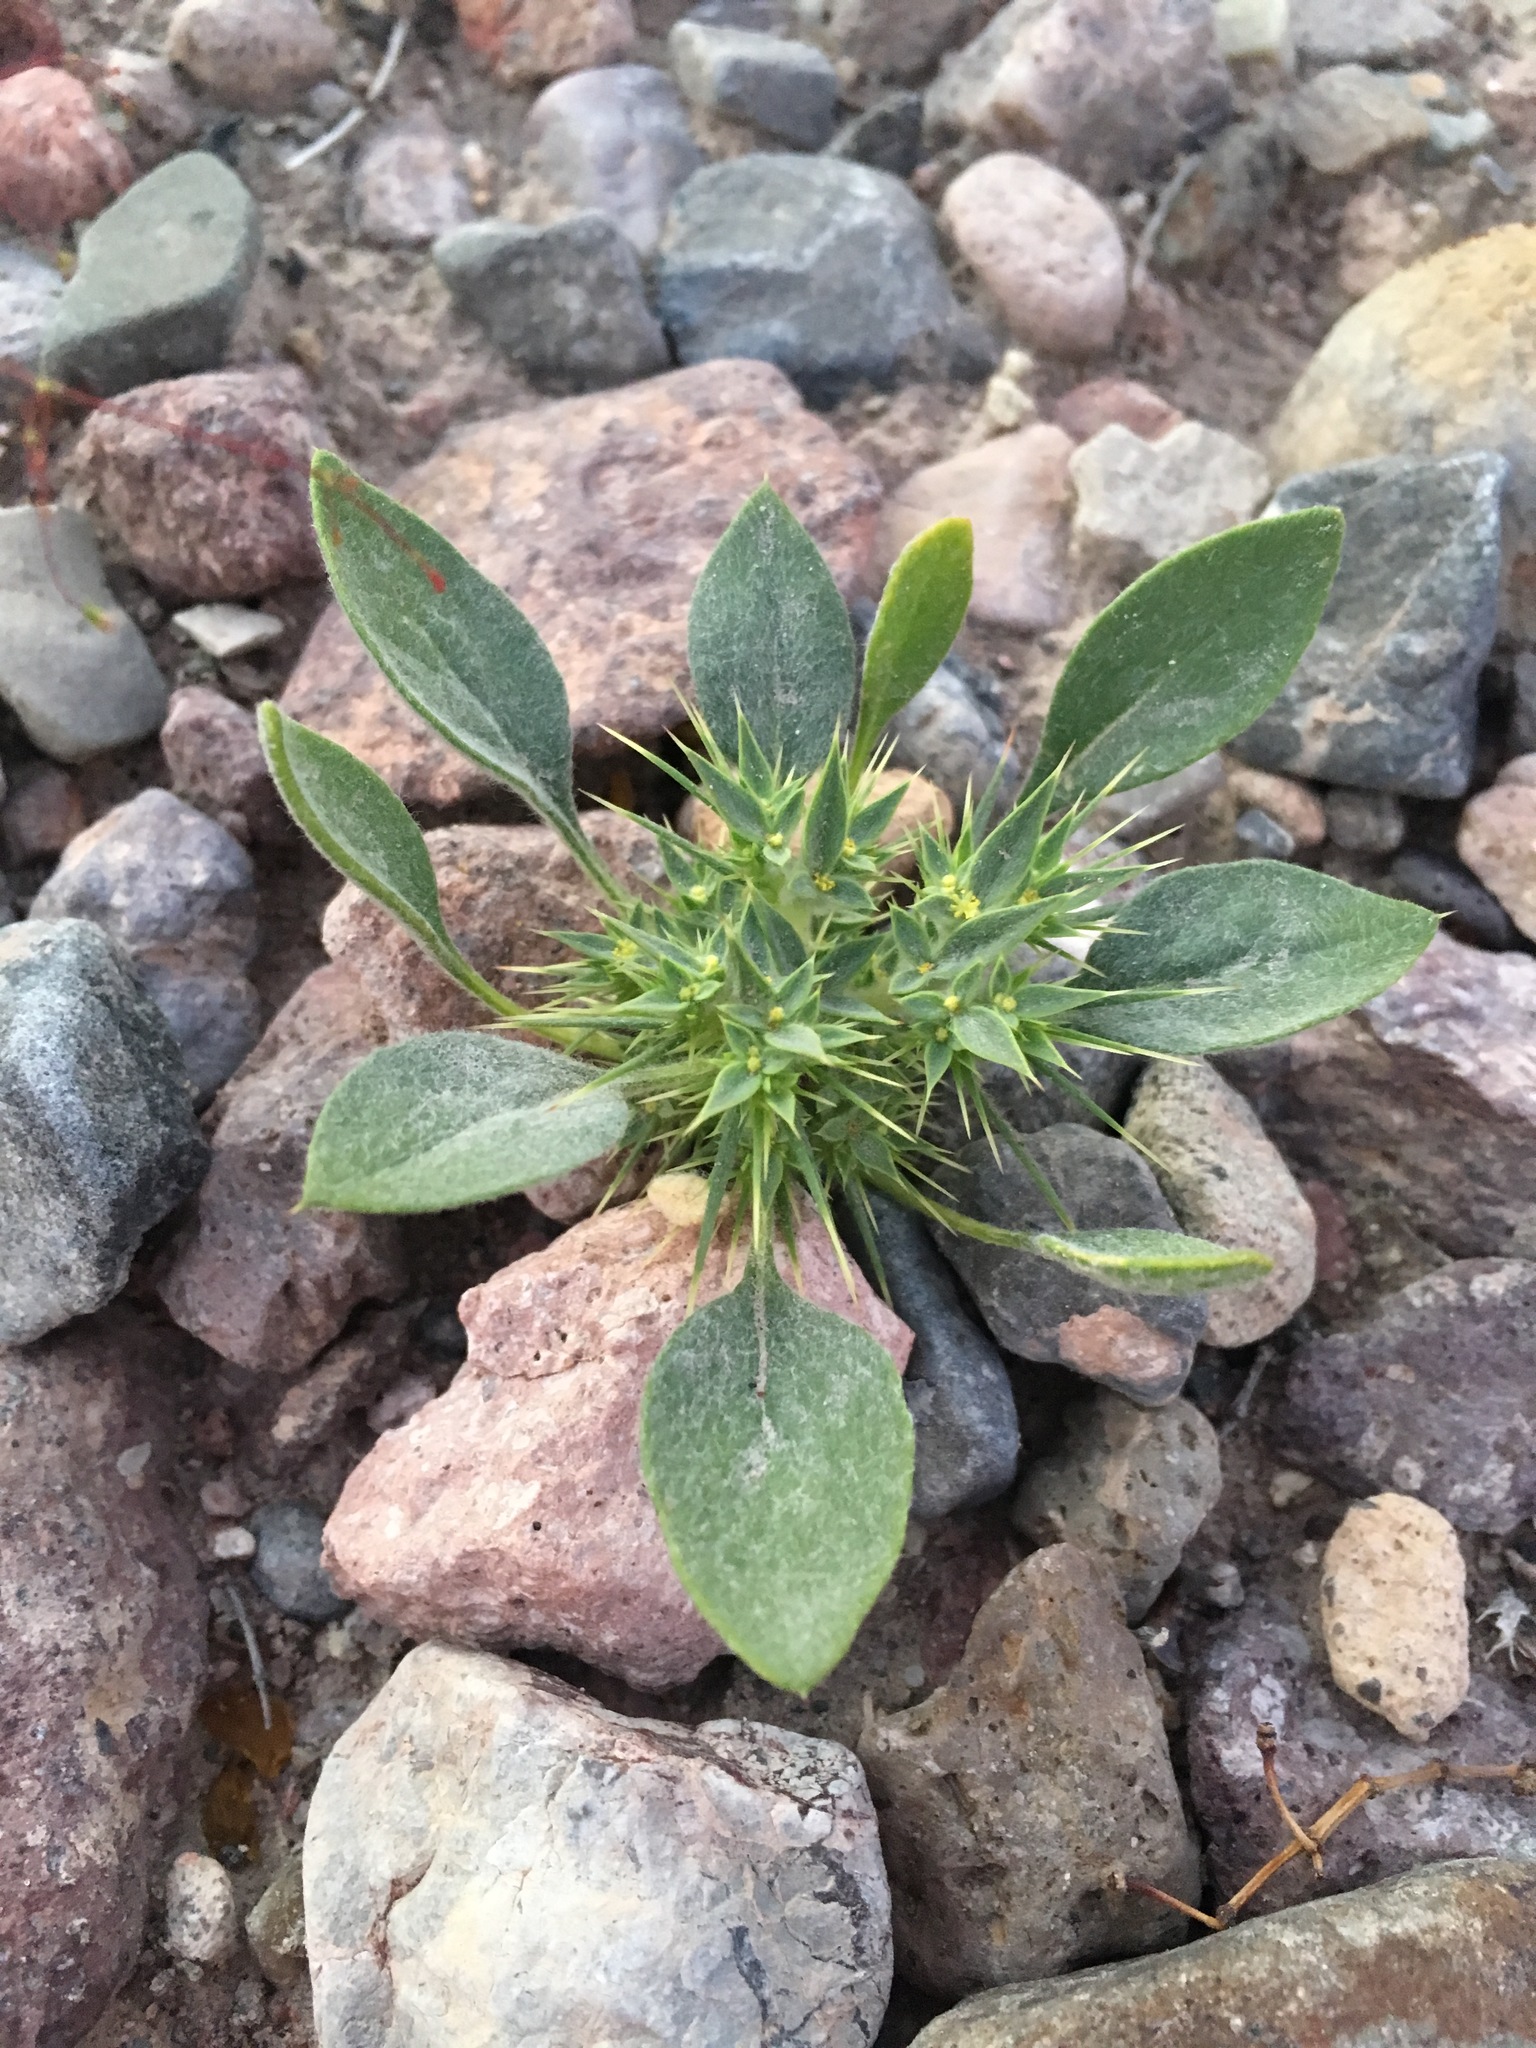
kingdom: Plantae
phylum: Tracheophyta
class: Magnoliopsida
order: Caryophyllales
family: Polygonaceae
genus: Chorizanthe
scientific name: Chorizanthe rigida
